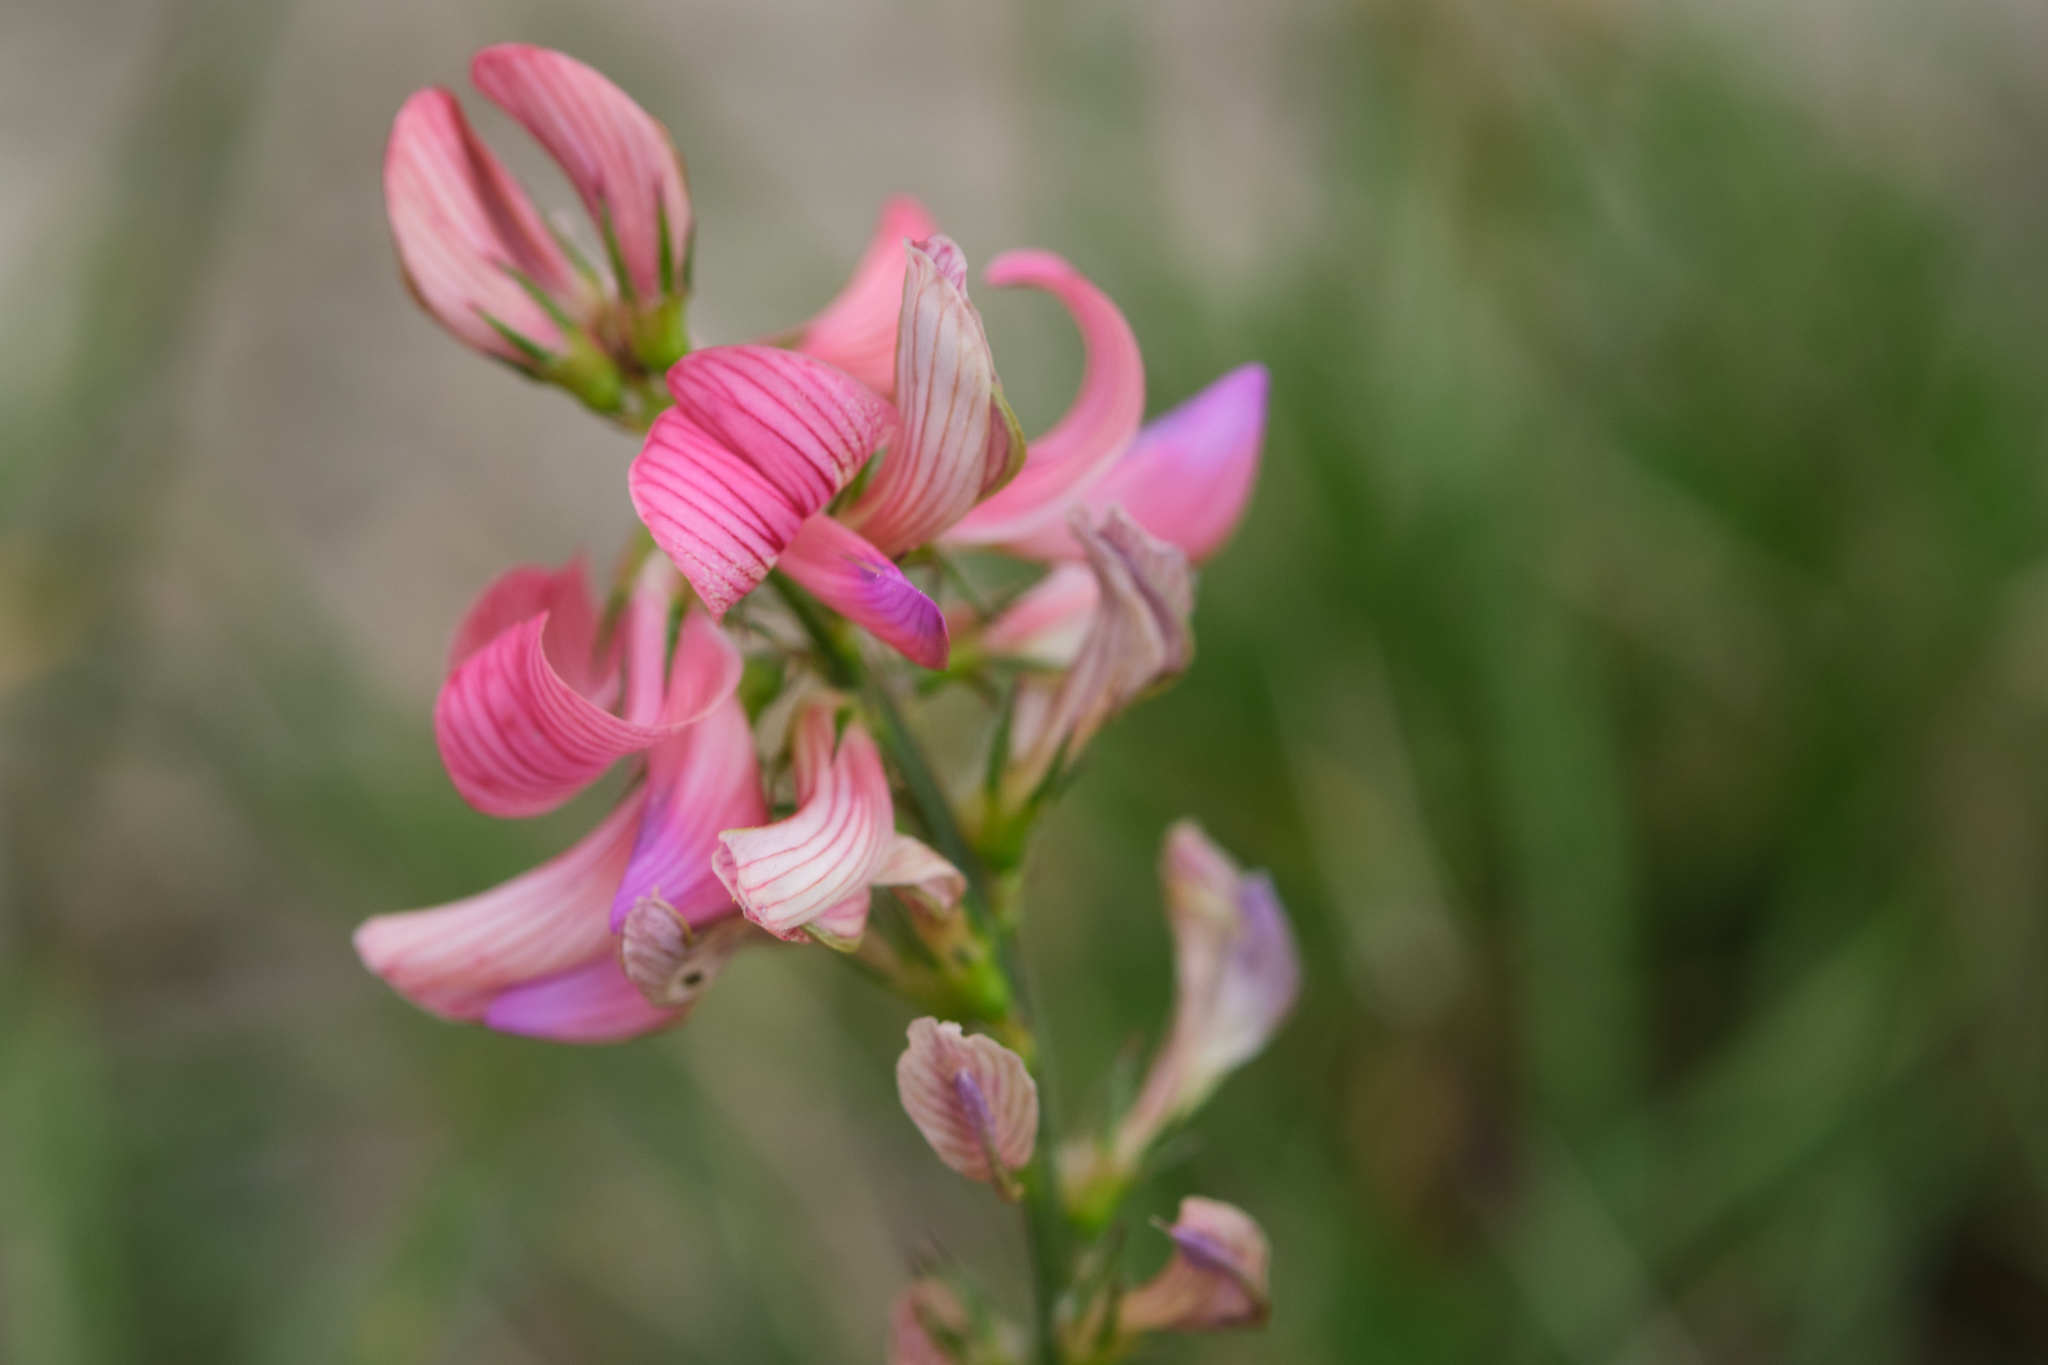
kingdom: Plantae
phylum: Tracheophyta
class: Magnoliopsida
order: Fabales
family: Fabaceae
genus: Onobrychis
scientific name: Onobrychis viciifolia
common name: Sainfoin
